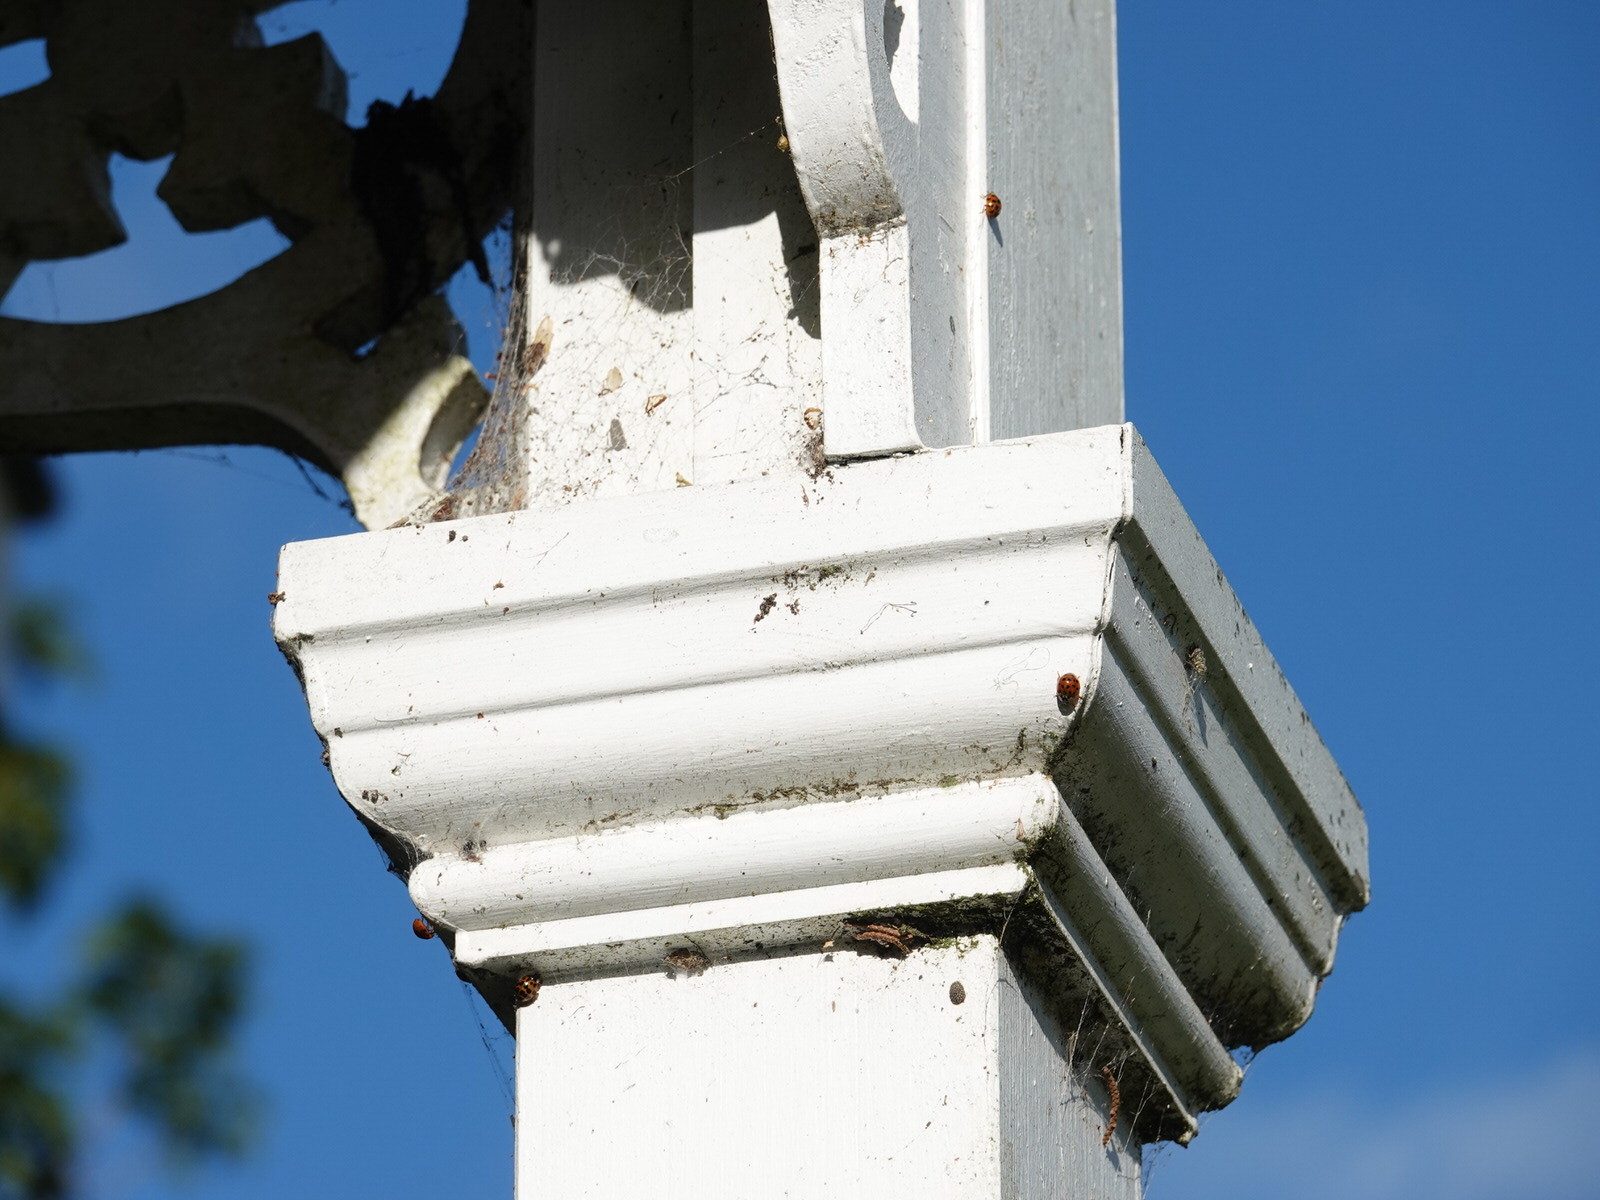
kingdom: Animalia
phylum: Arthropoda
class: Insecta
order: Coleoptera
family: Coccinellidae
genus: Harmonia
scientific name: Harmonia axyridis
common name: Harlequin ladybird
